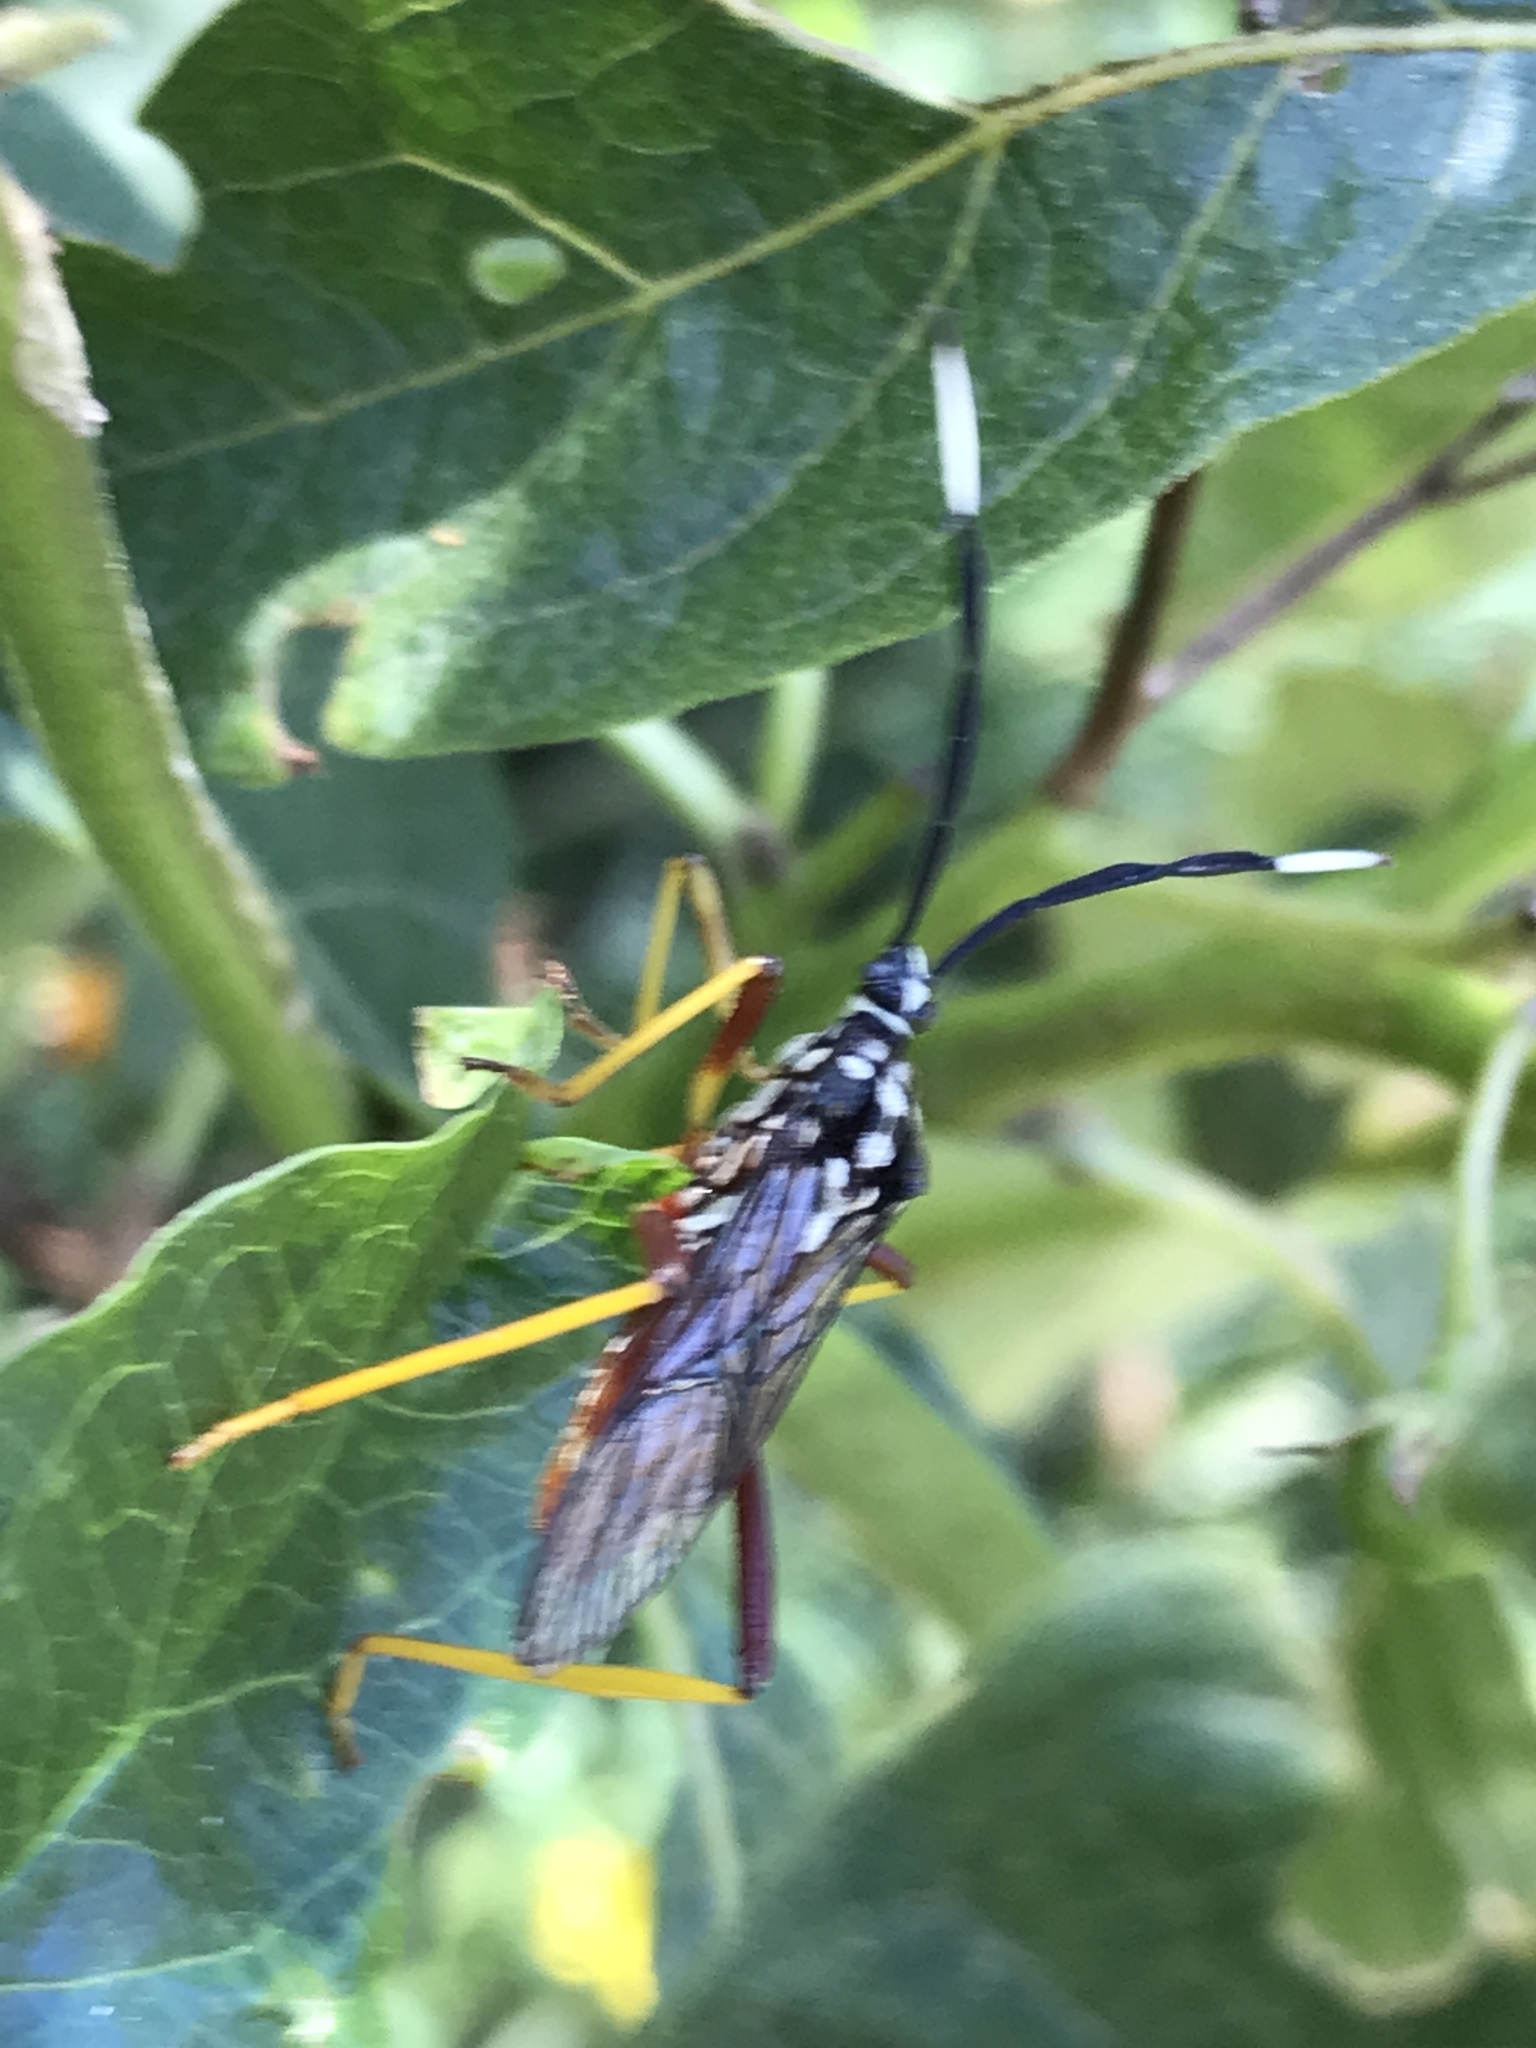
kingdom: Animalia
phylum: Arthropoda
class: Insecta
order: Hemiptera
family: Coreidae
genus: Holhymenia
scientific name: Holhymenia histrio
